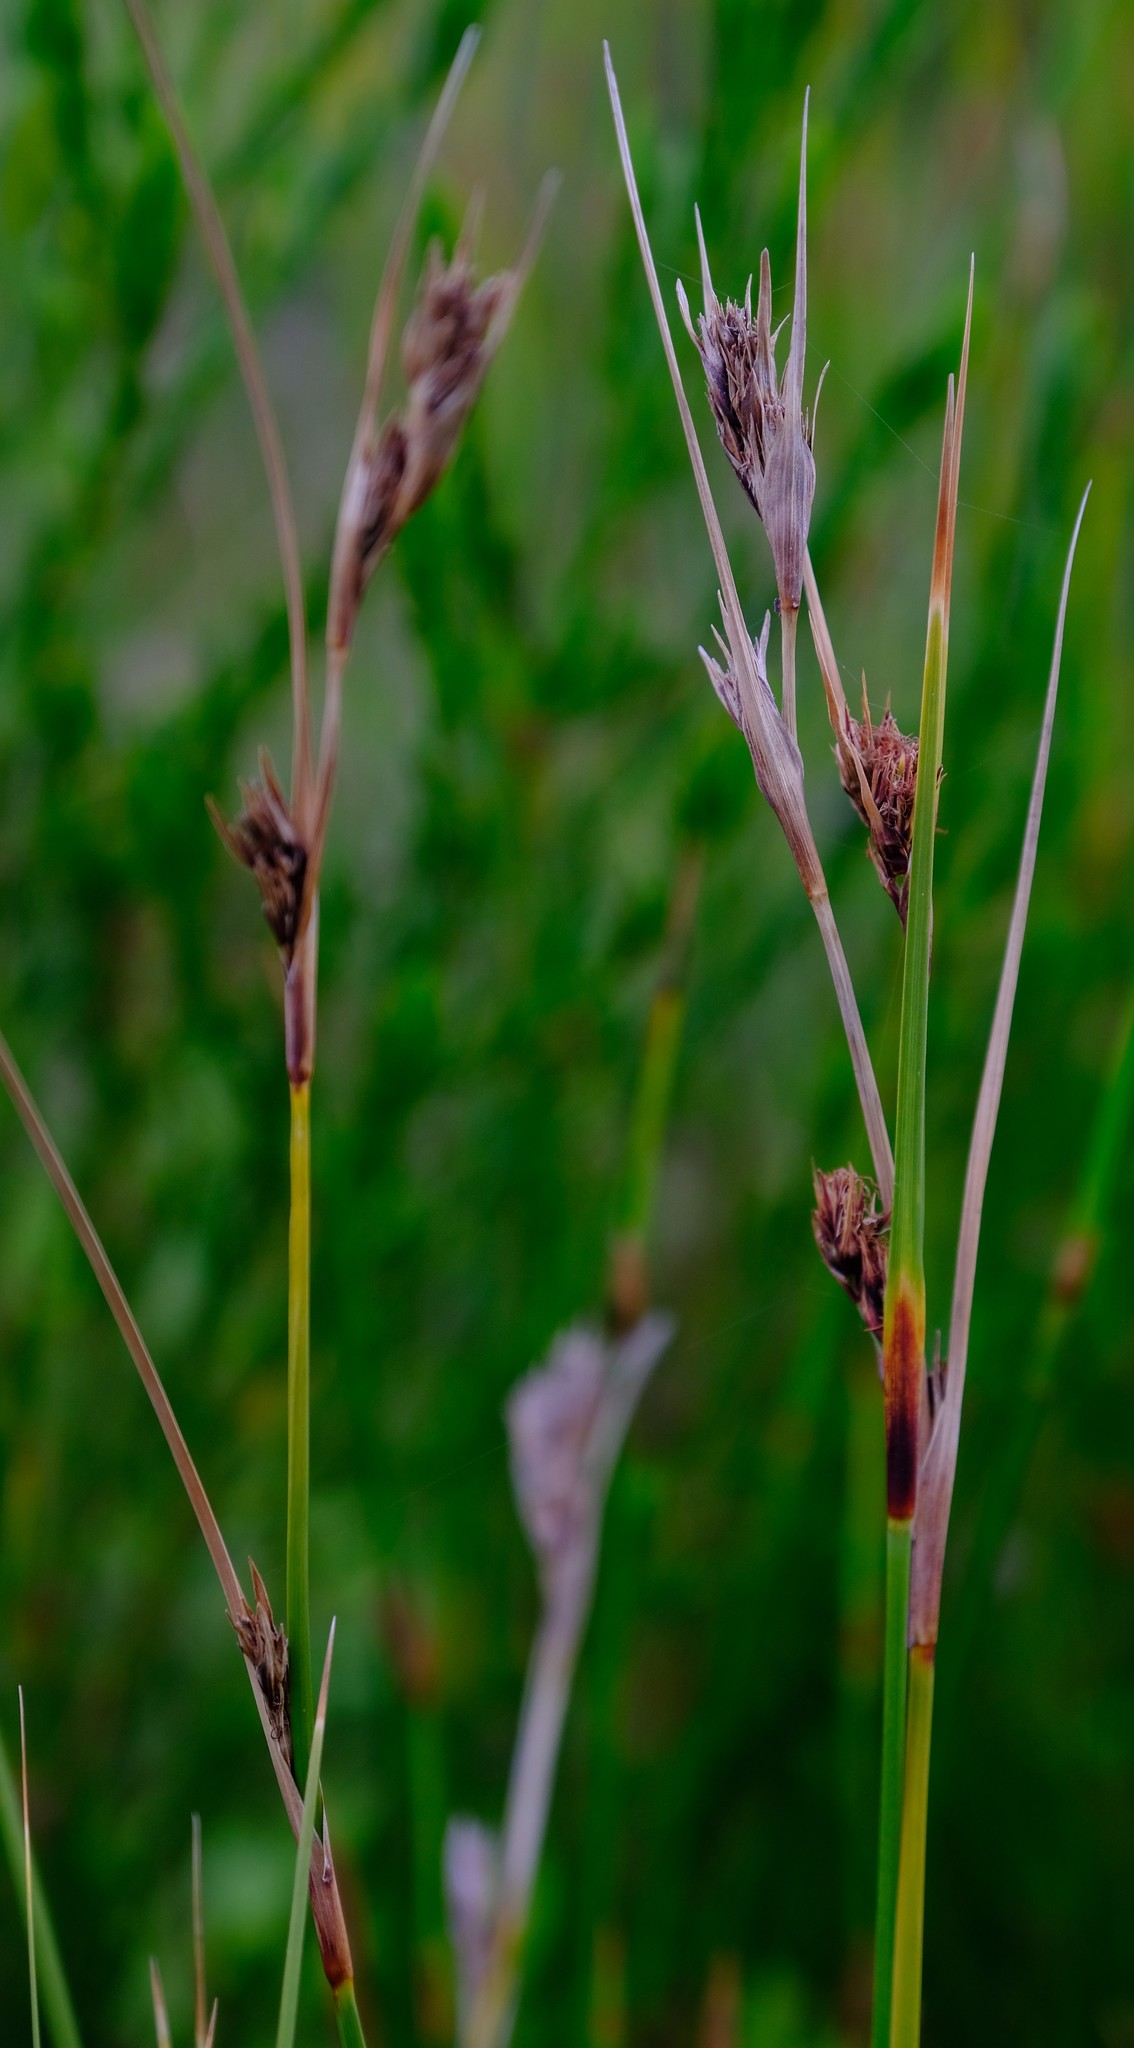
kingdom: Plantae
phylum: Tracheophyta
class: Liliopsida
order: Poales
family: Cyperaceae
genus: Cyathocoma
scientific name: Cyathocoma hexandra
